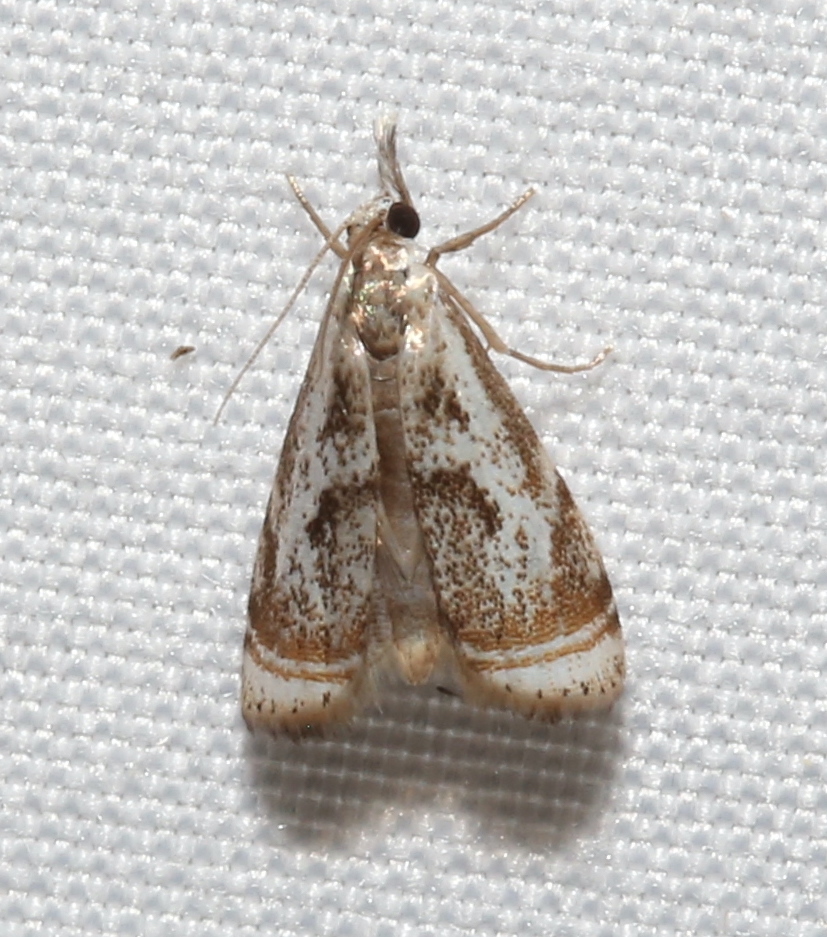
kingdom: Animalia
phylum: Arthropoda
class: Insecta
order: Lepidoptera
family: Crambidae
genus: Microcrambus
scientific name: Microcrambus elegans
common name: Elegant grass-veneer
